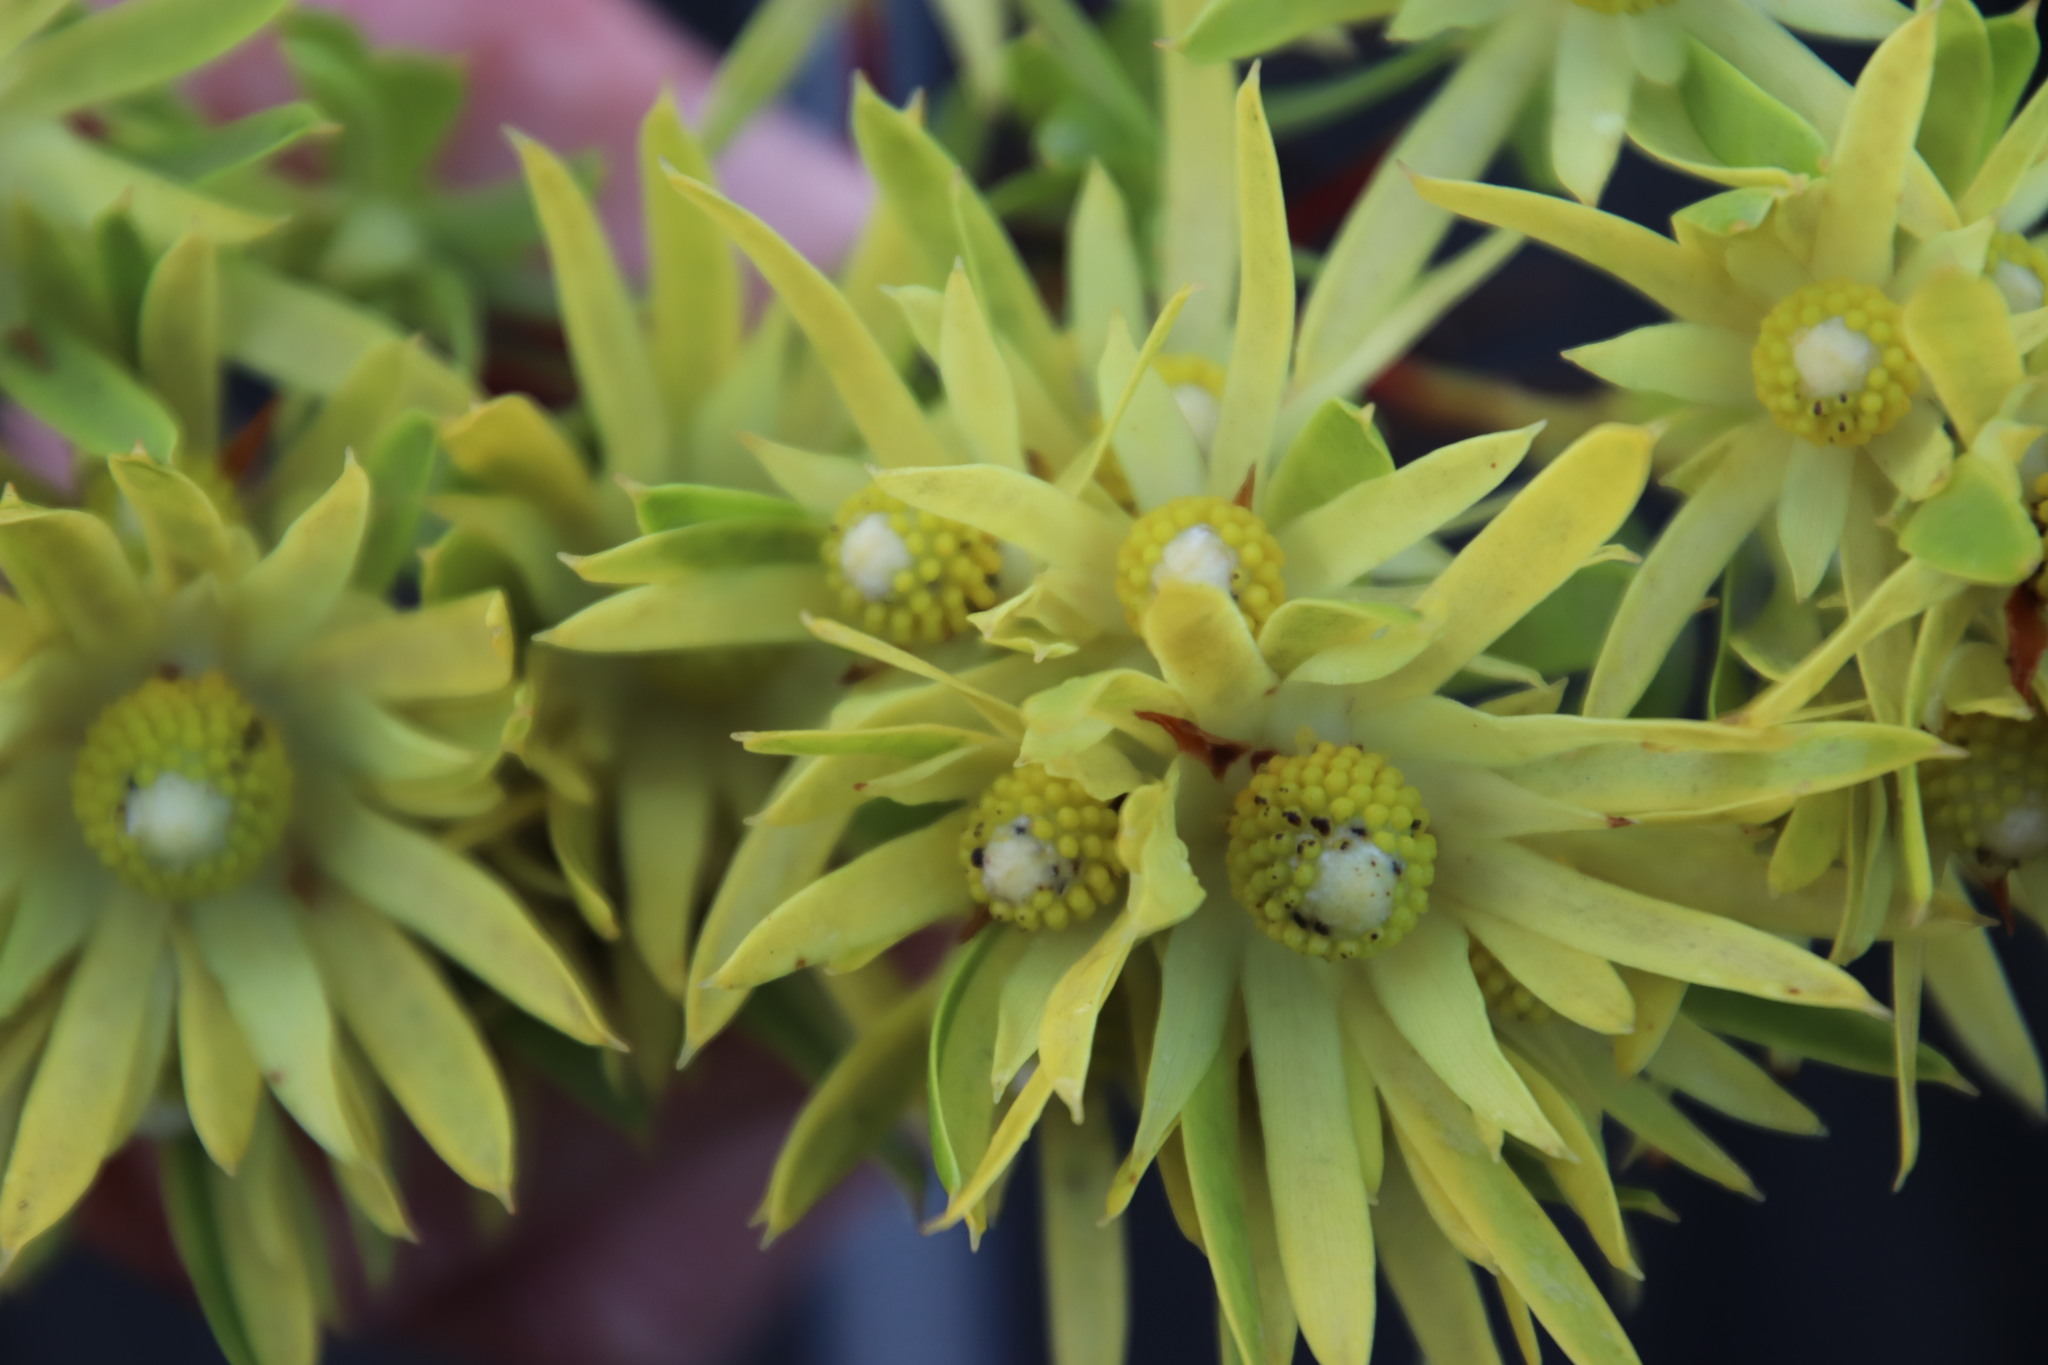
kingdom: Plantae
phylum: Tracheophyta
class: Magnoliopsida
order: Proteales
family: Proteaceae
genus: Leucadendron
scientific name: Leucadendron xanthoconus
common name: Sickle-leaf conebush
